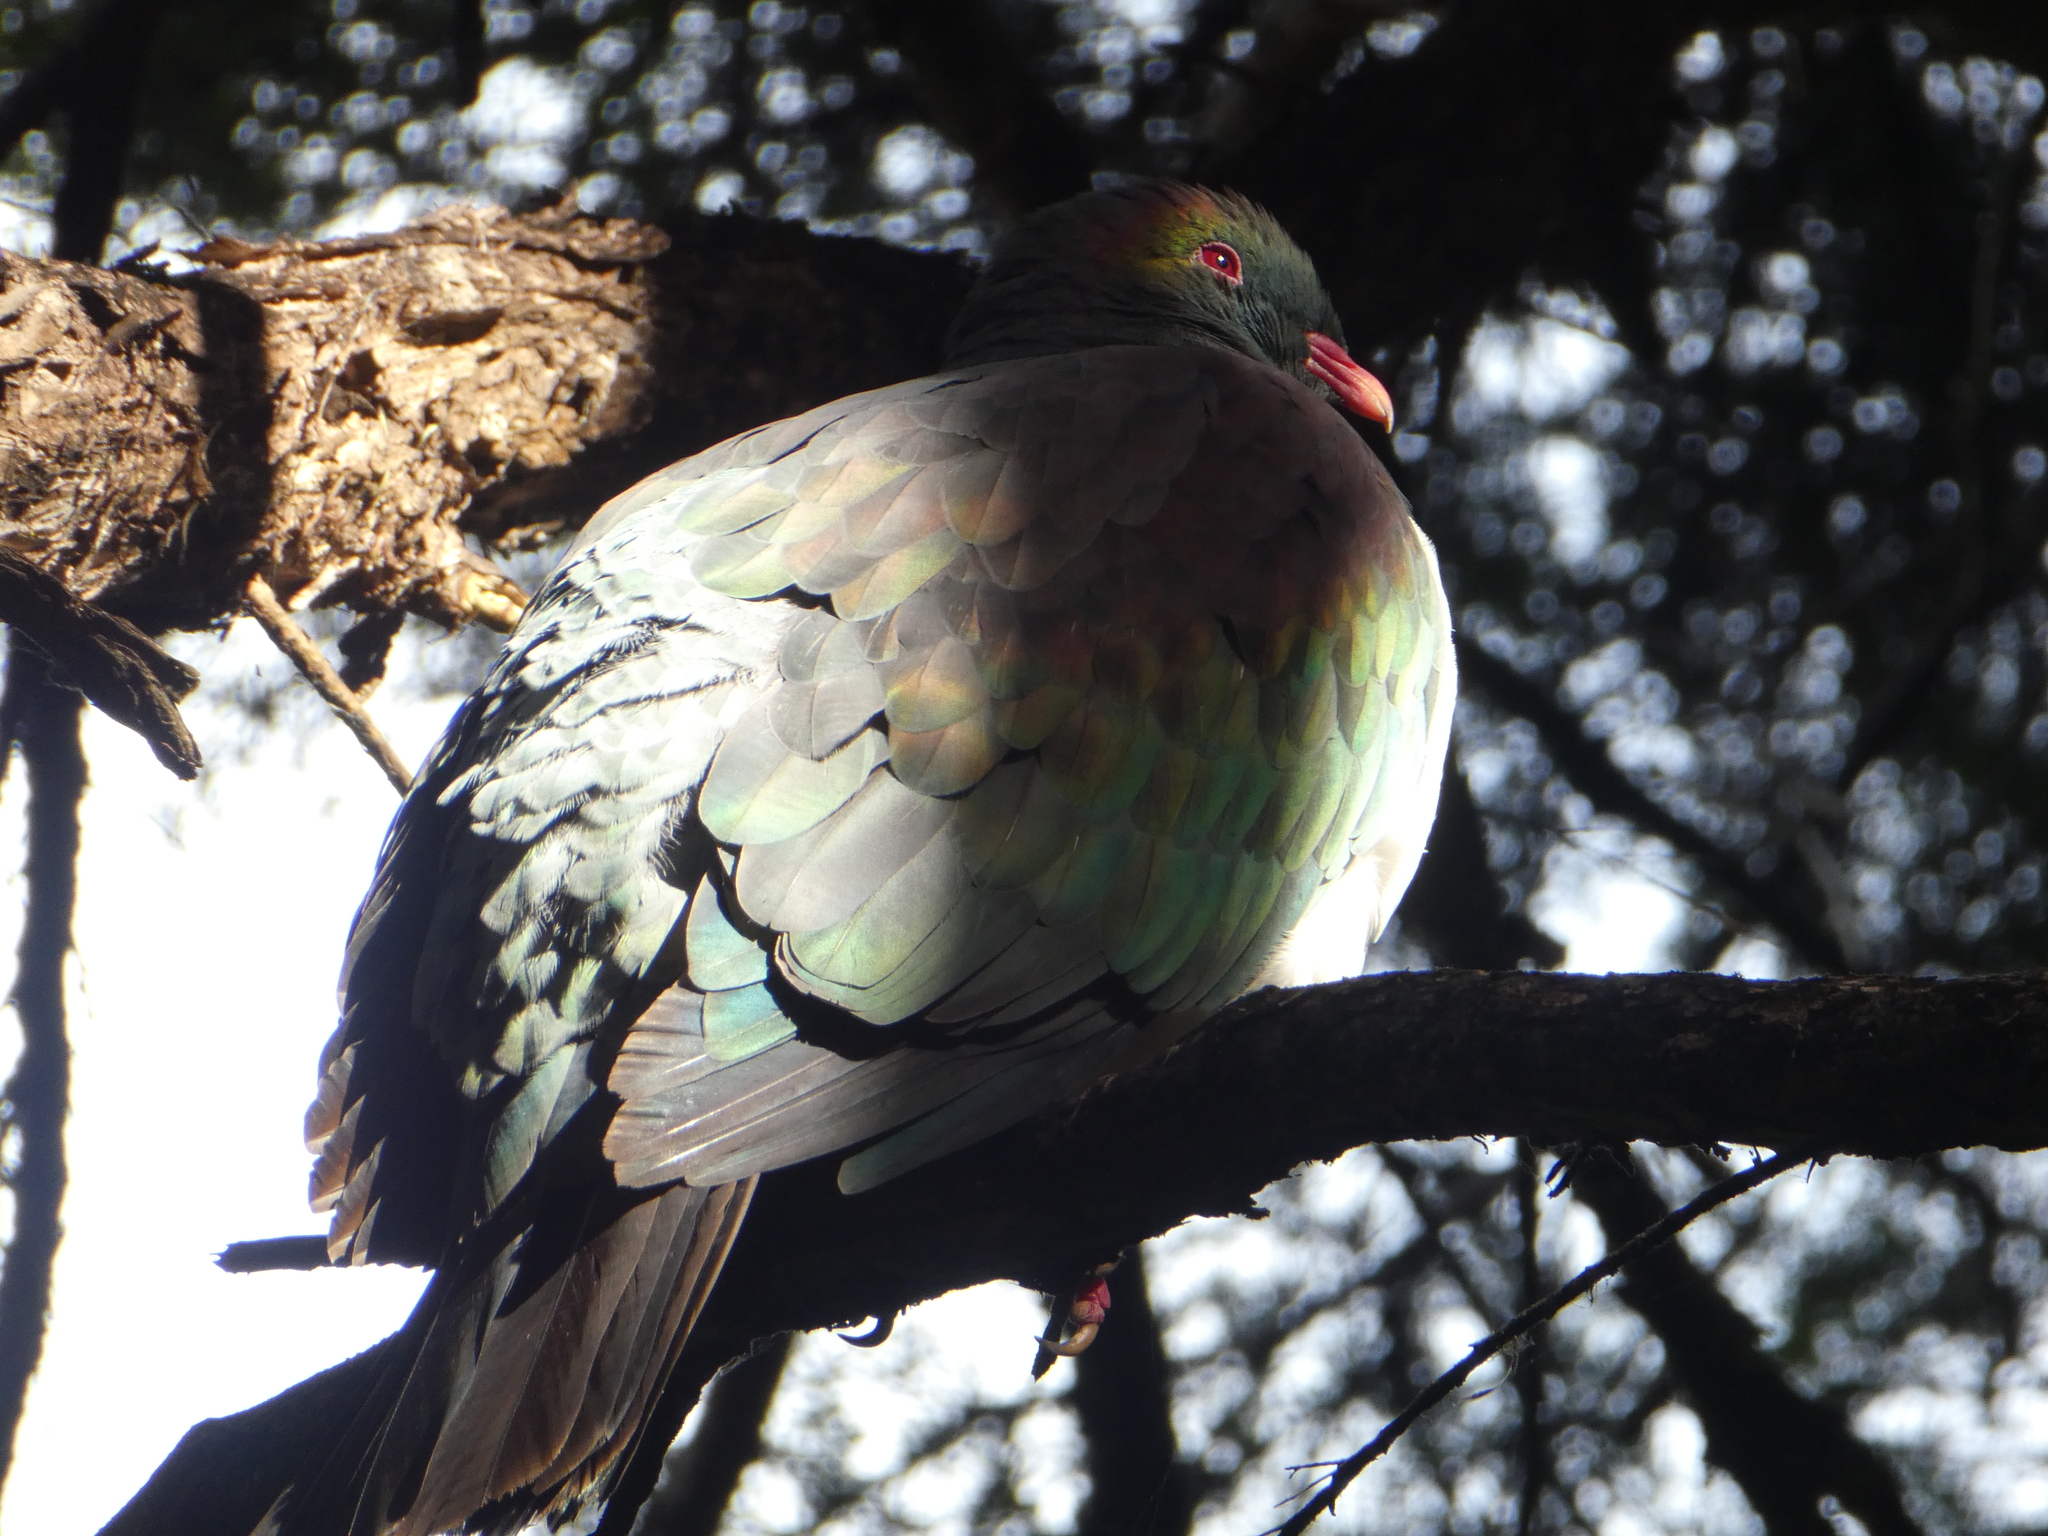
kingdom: Animalia
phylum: Chordata
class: Aves
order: Columbiformes
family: Columbidae
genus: Hemiphaga
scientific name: Hemiphaga novaeseelandiae
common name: New zealand pigeon
